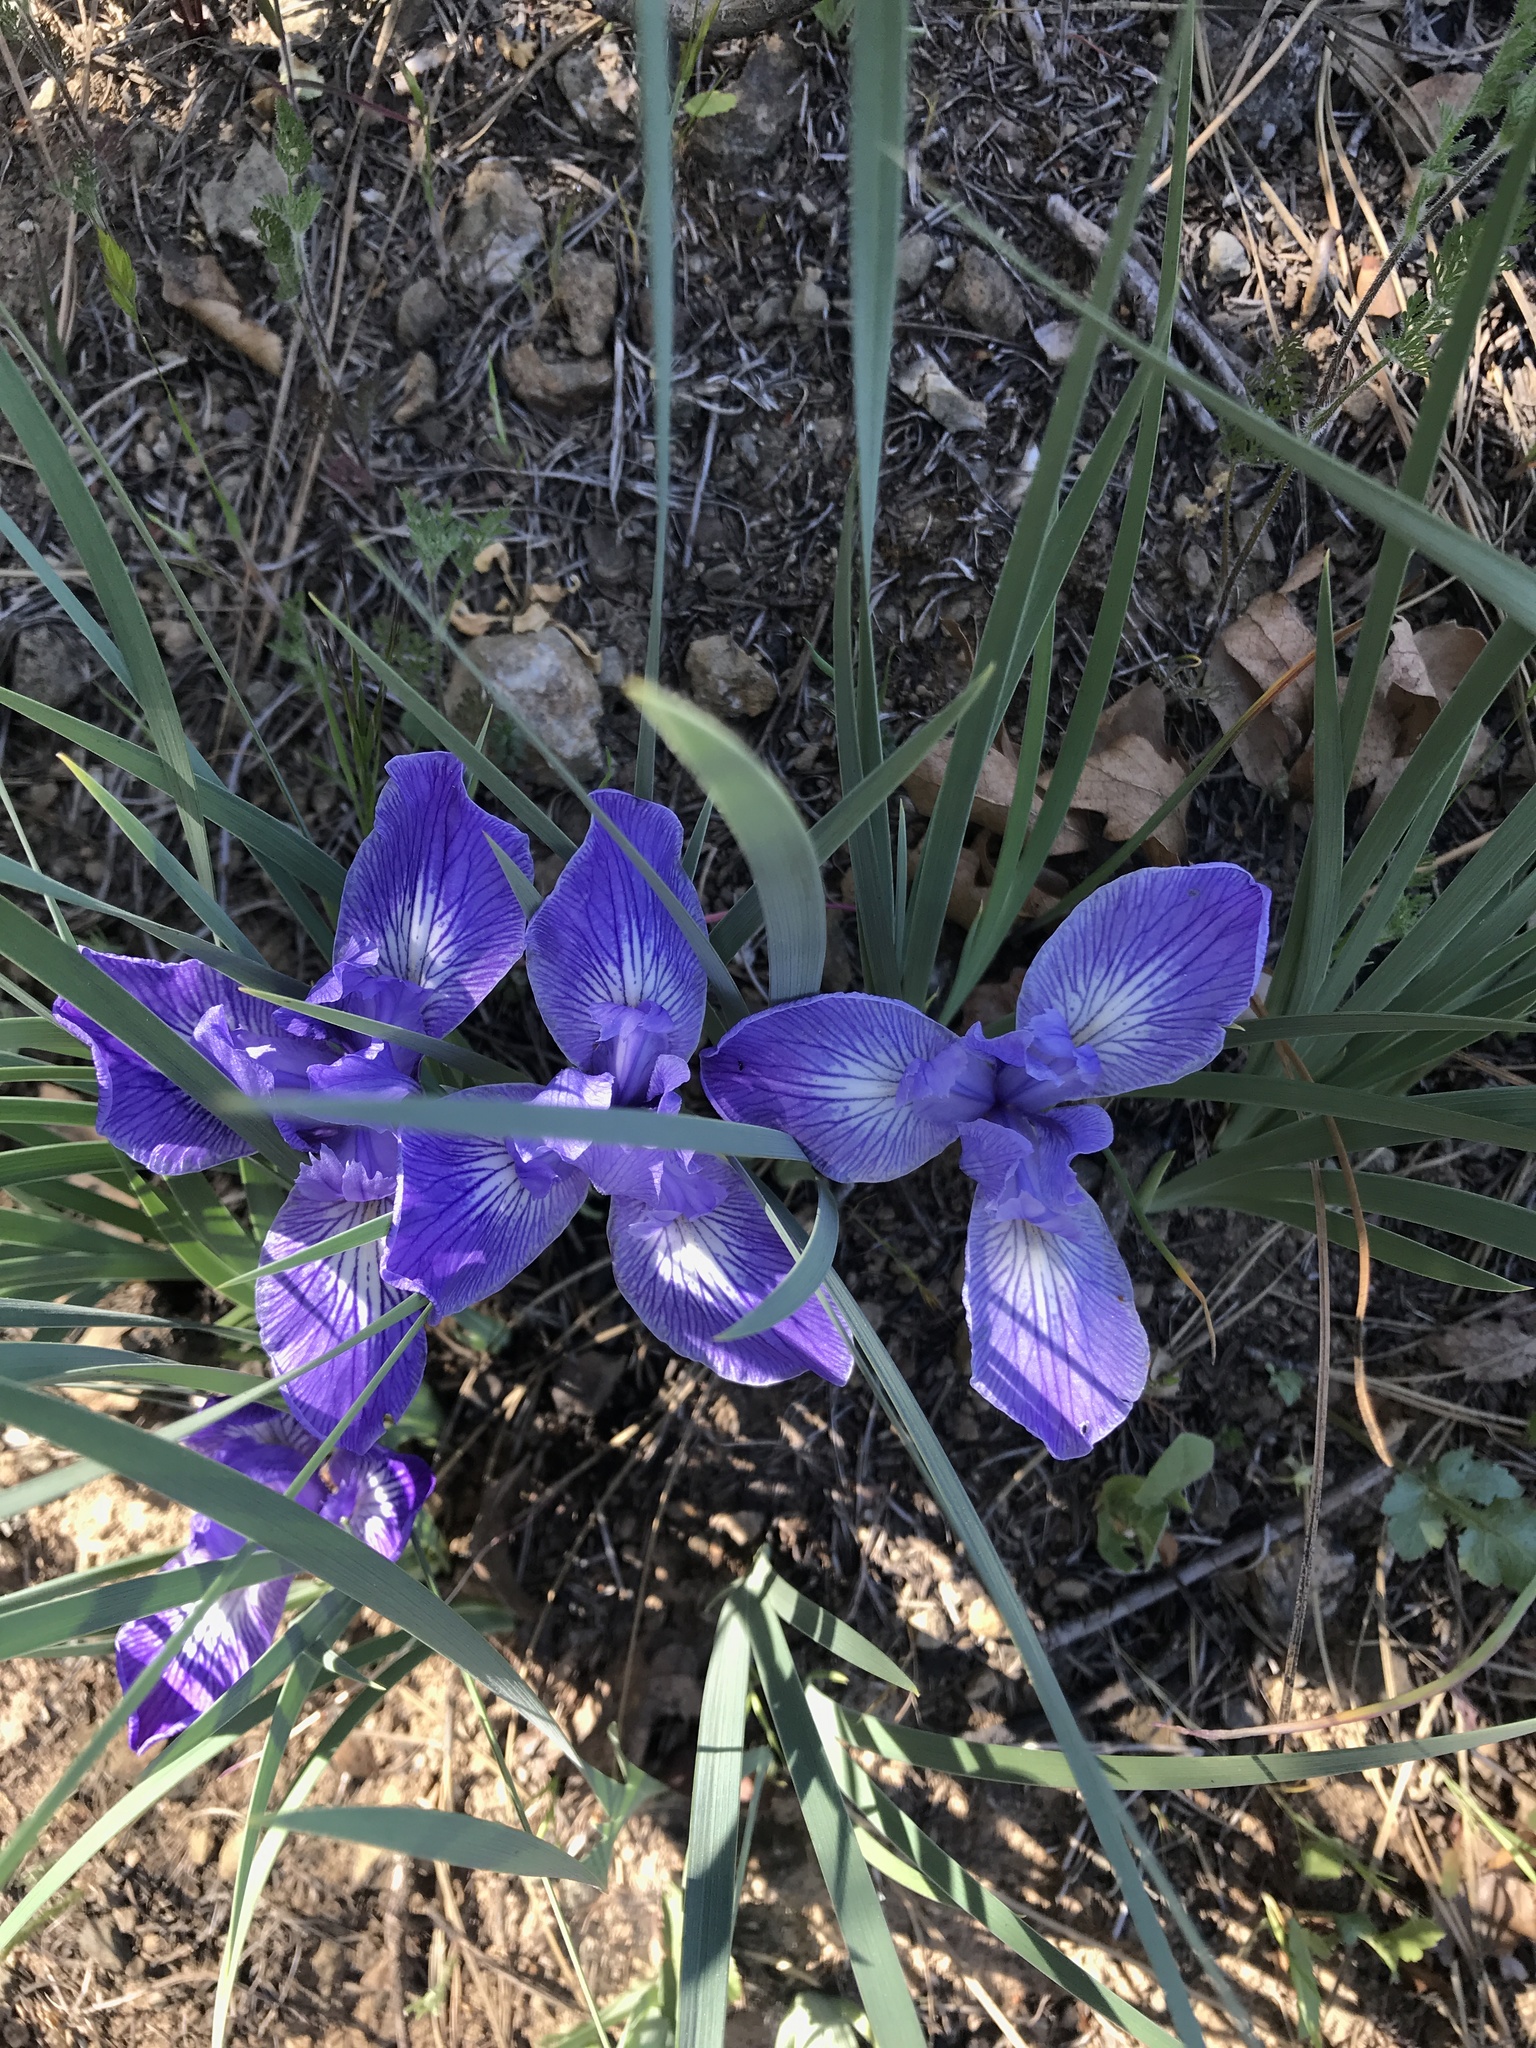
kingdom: Plantae
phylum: Tracheophyta
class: Liliopsida
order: Asparagales
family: Iridaceae
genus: Iris
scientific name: Iris macrosiphon
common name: Ground iris
